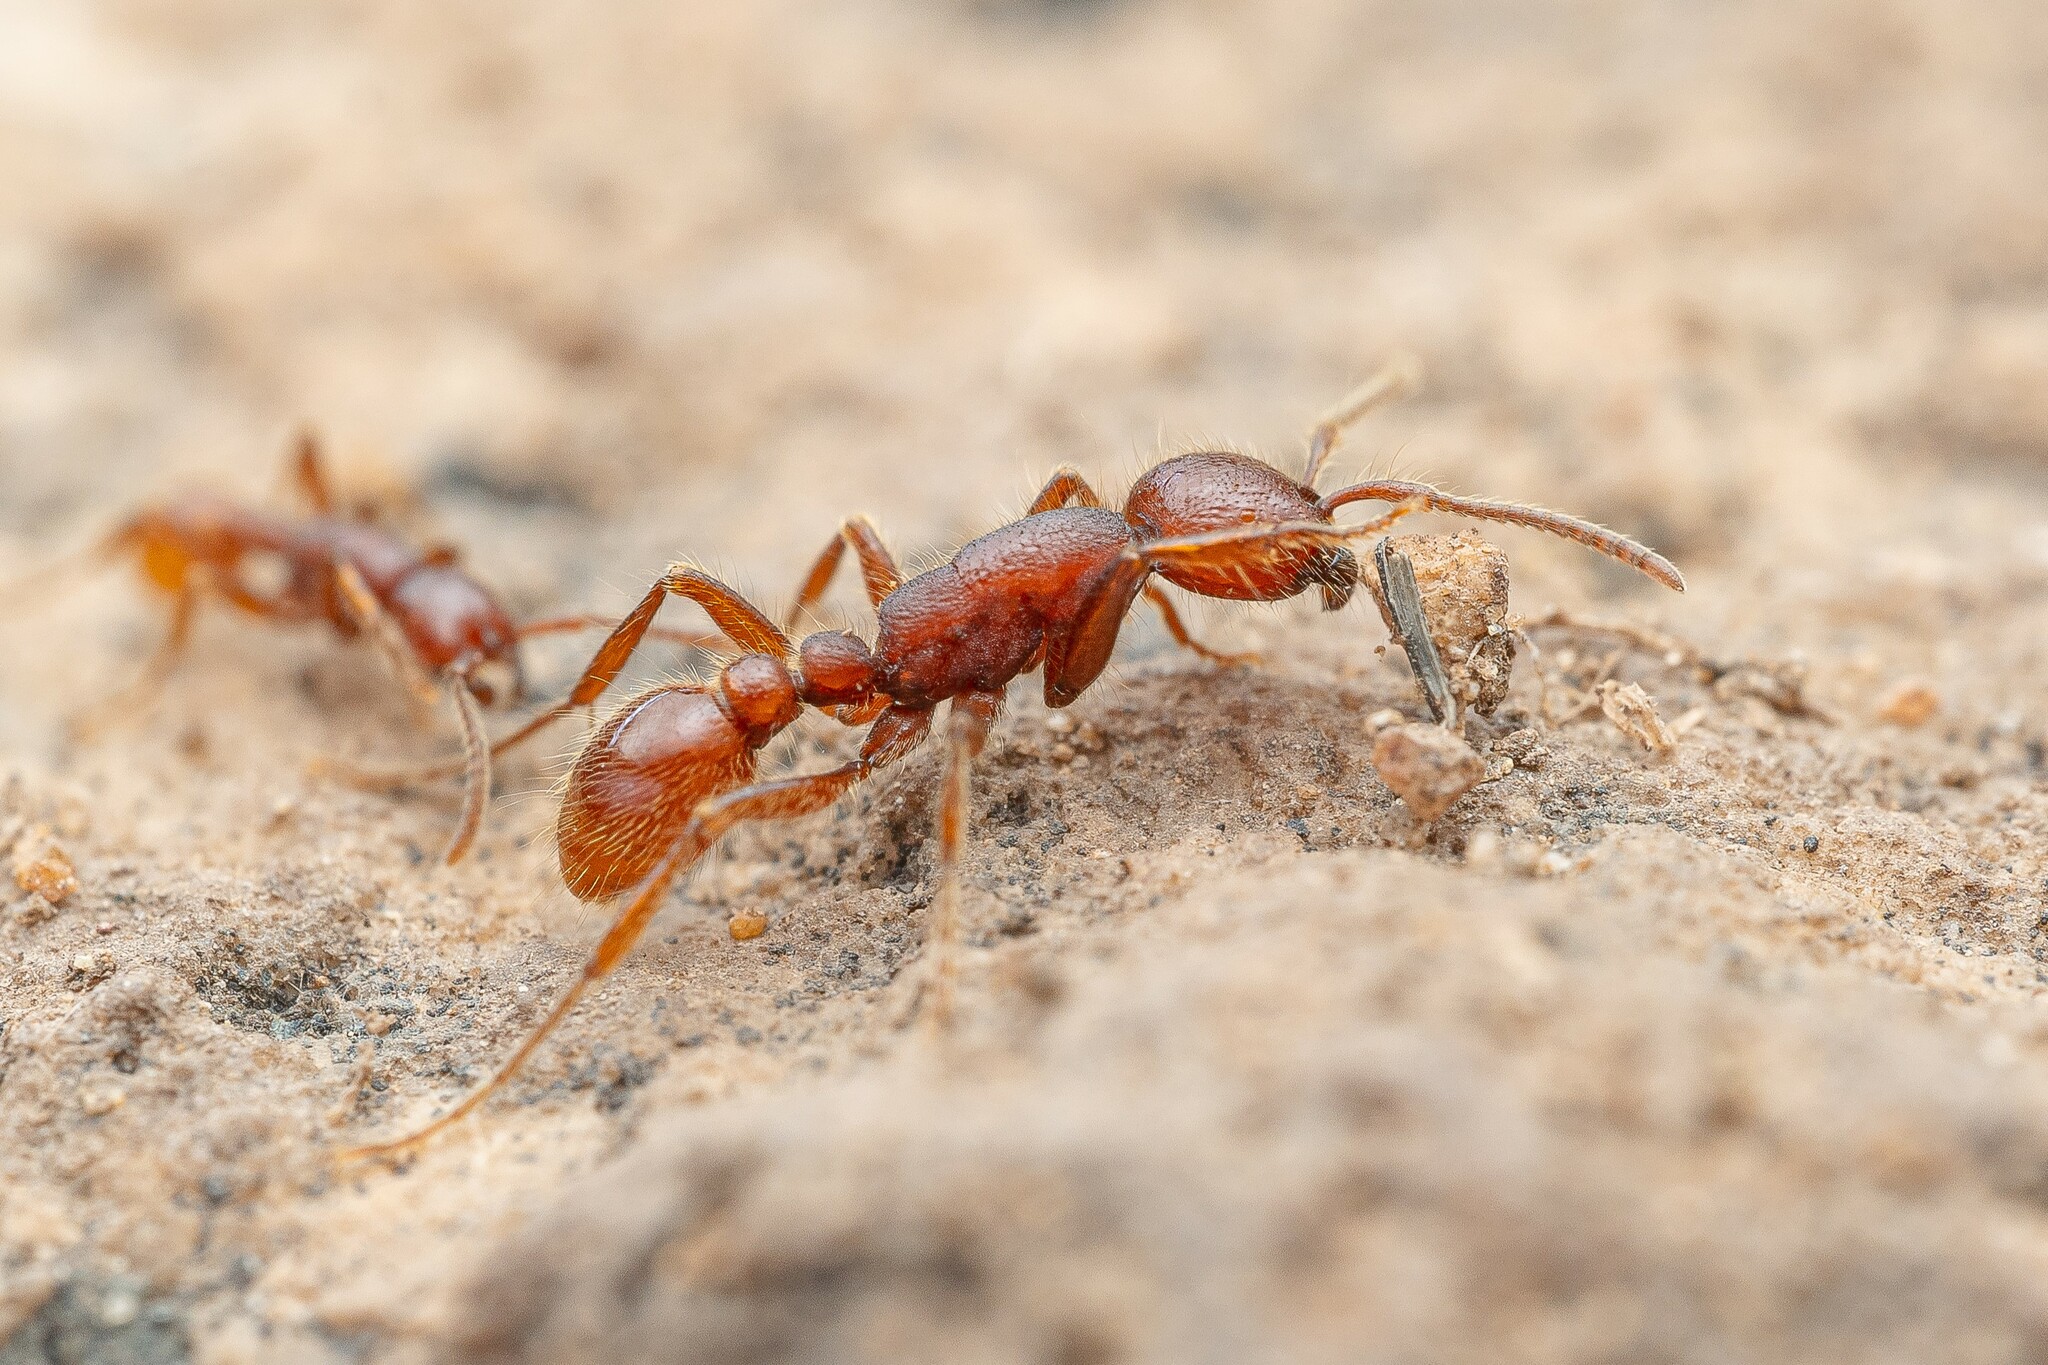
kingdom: Animalia
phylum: Arthropoda
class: Insecta
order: Hymenoptera
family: Formicidae
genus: Neivamyrmex
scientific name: Neivamyrmex harrisii
